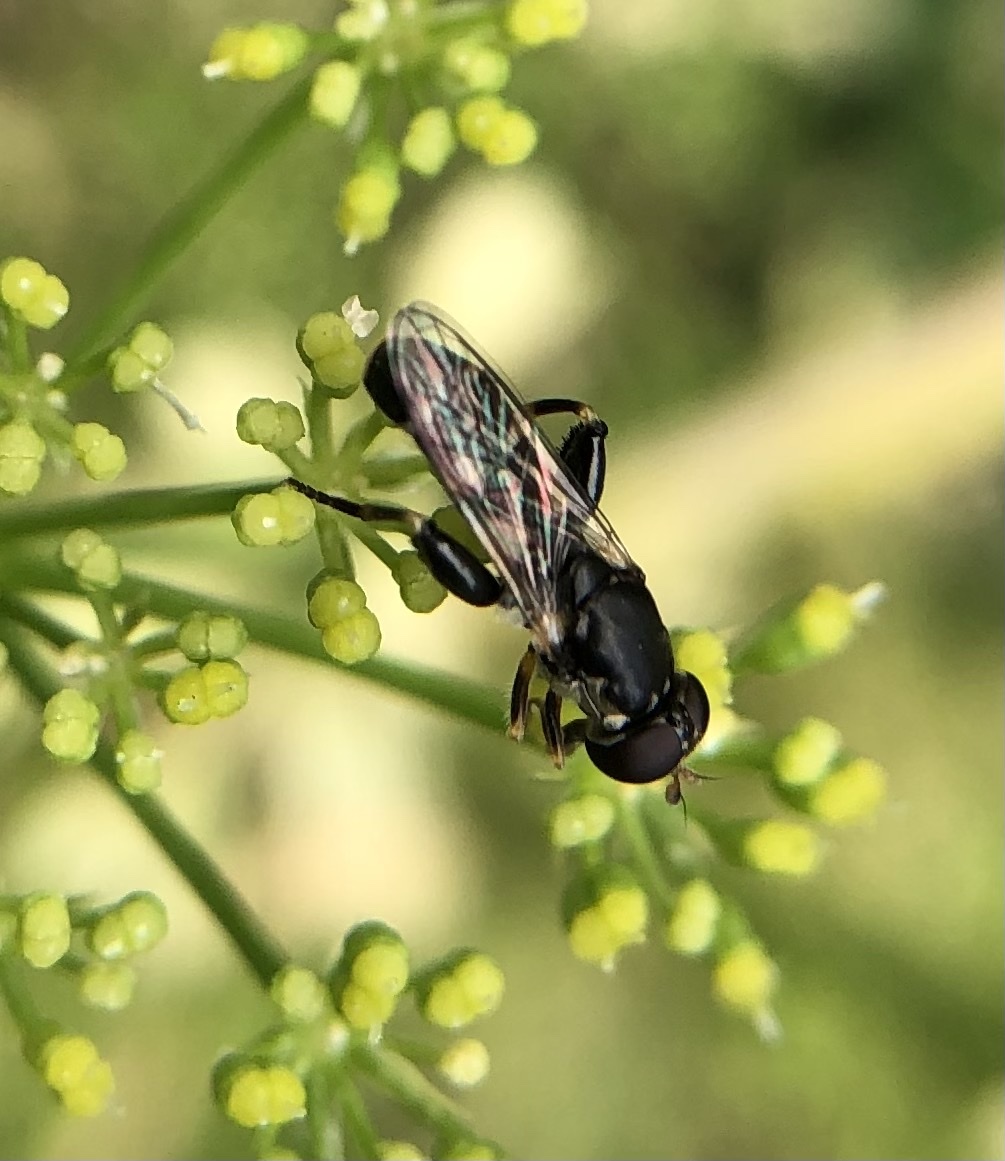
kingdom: Animalia
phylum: Arthropoda
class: Insecta
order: Diptera
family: Syrphidae
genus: Syritta
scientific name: Syritta pipiens
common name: Hover fly
